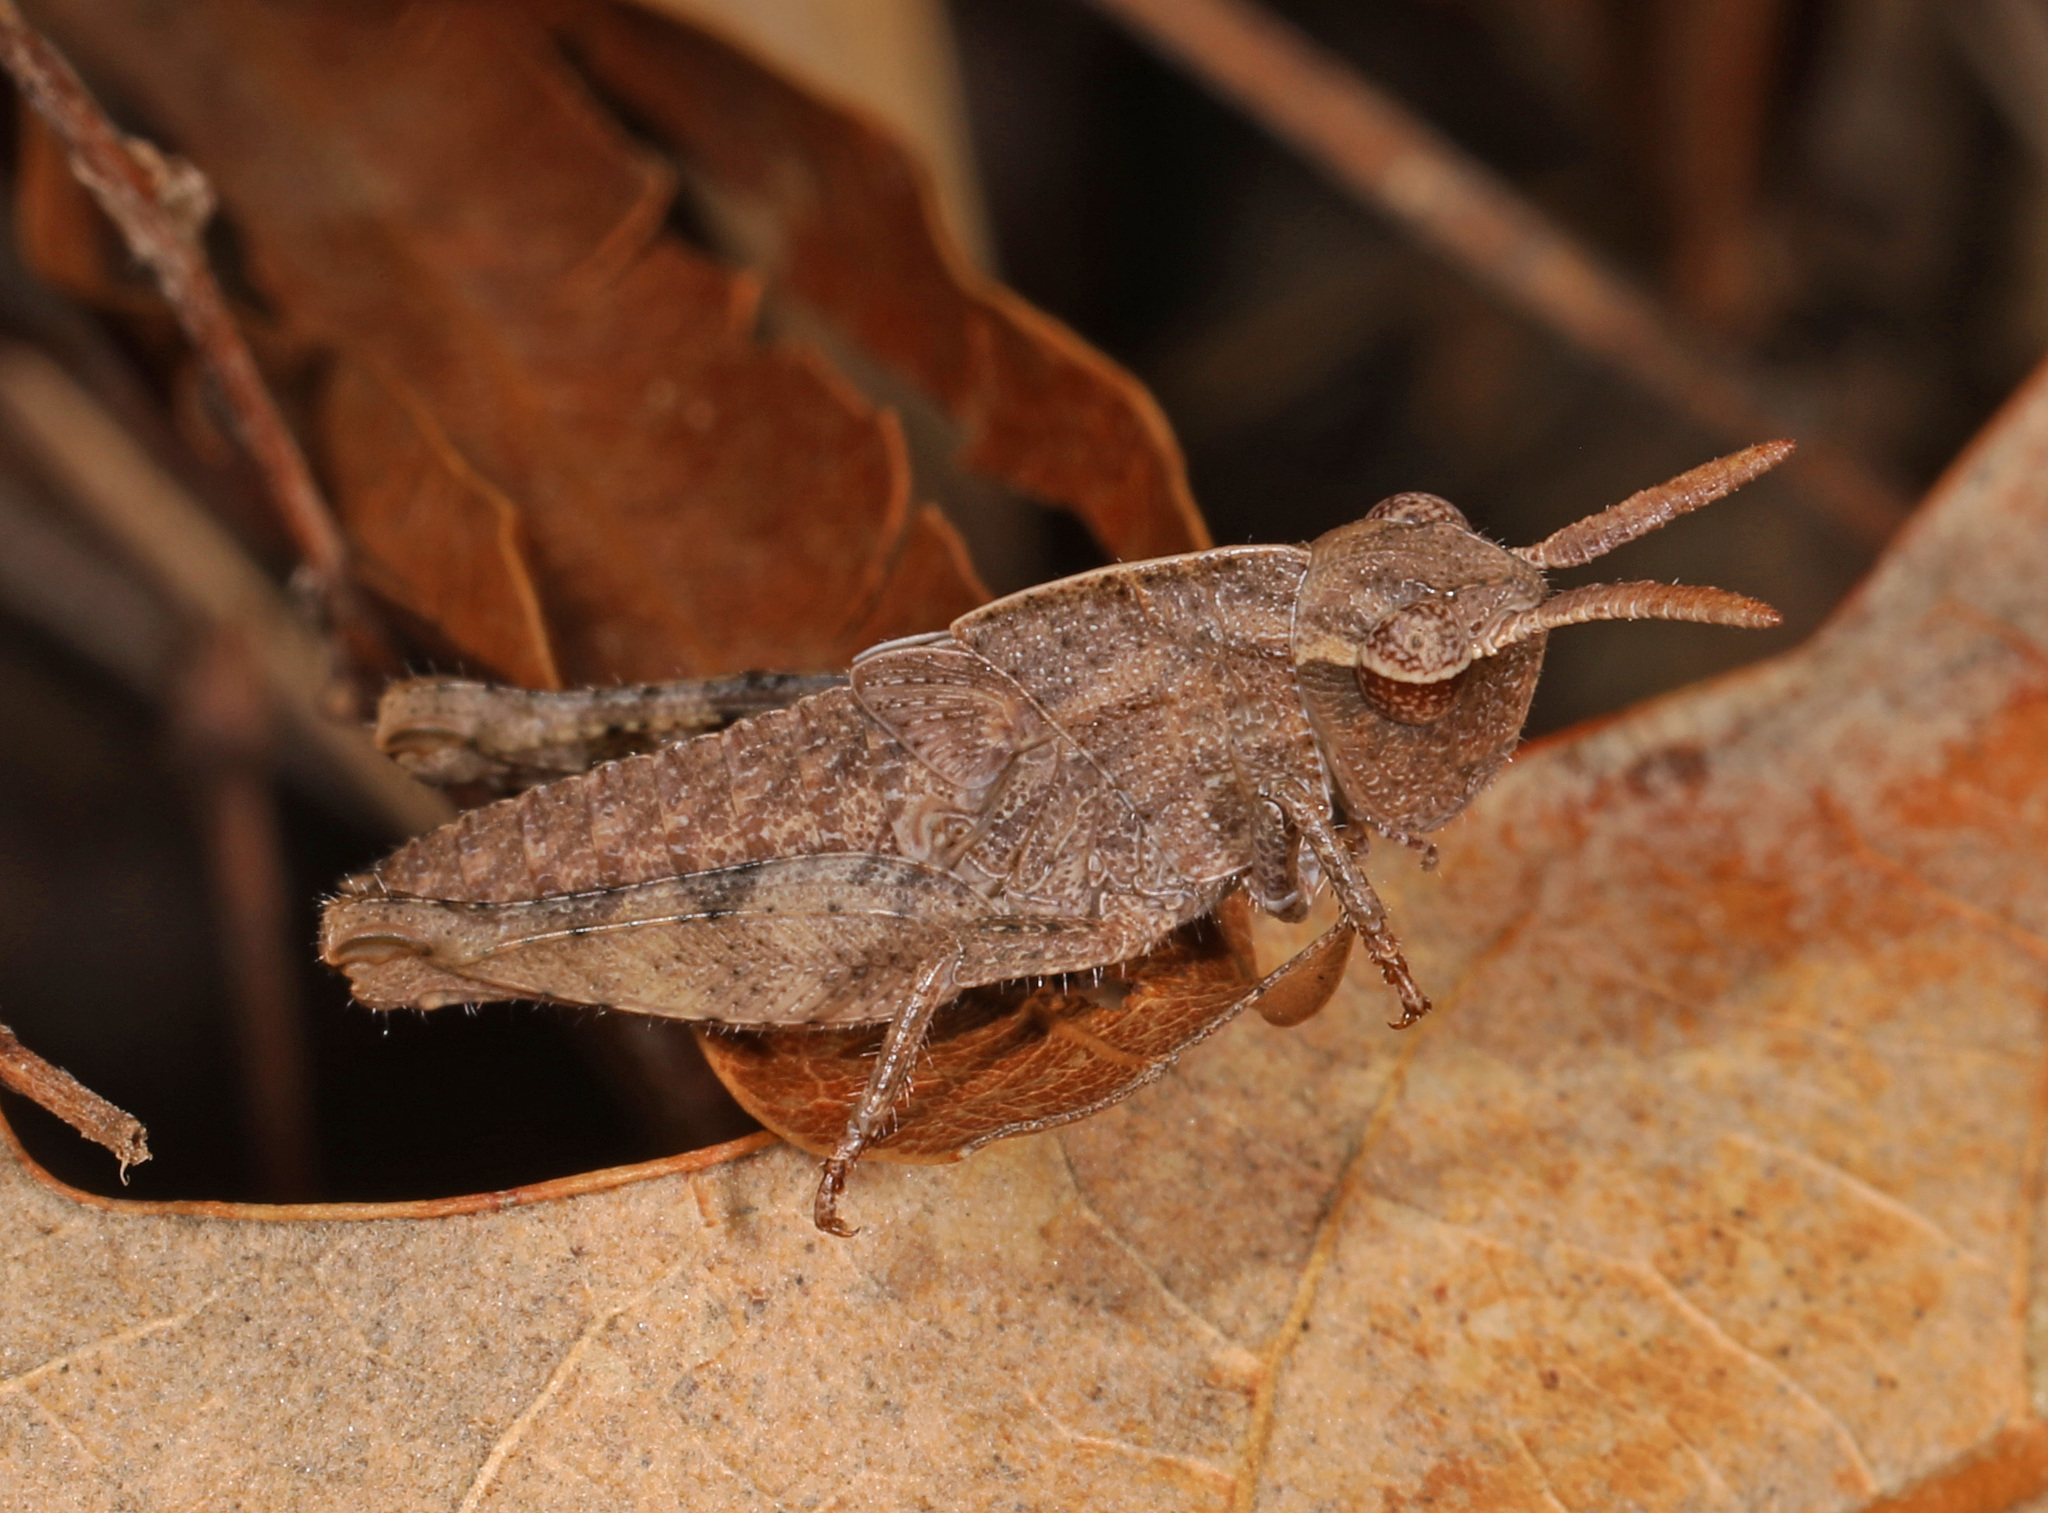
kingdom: Animalia
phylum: Arthropoda
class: Insecta
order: Orthoptera
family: Acrididae
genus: Chortophaga
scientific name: Chortophaga viridifasciata
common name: Green-striped grasshopper
